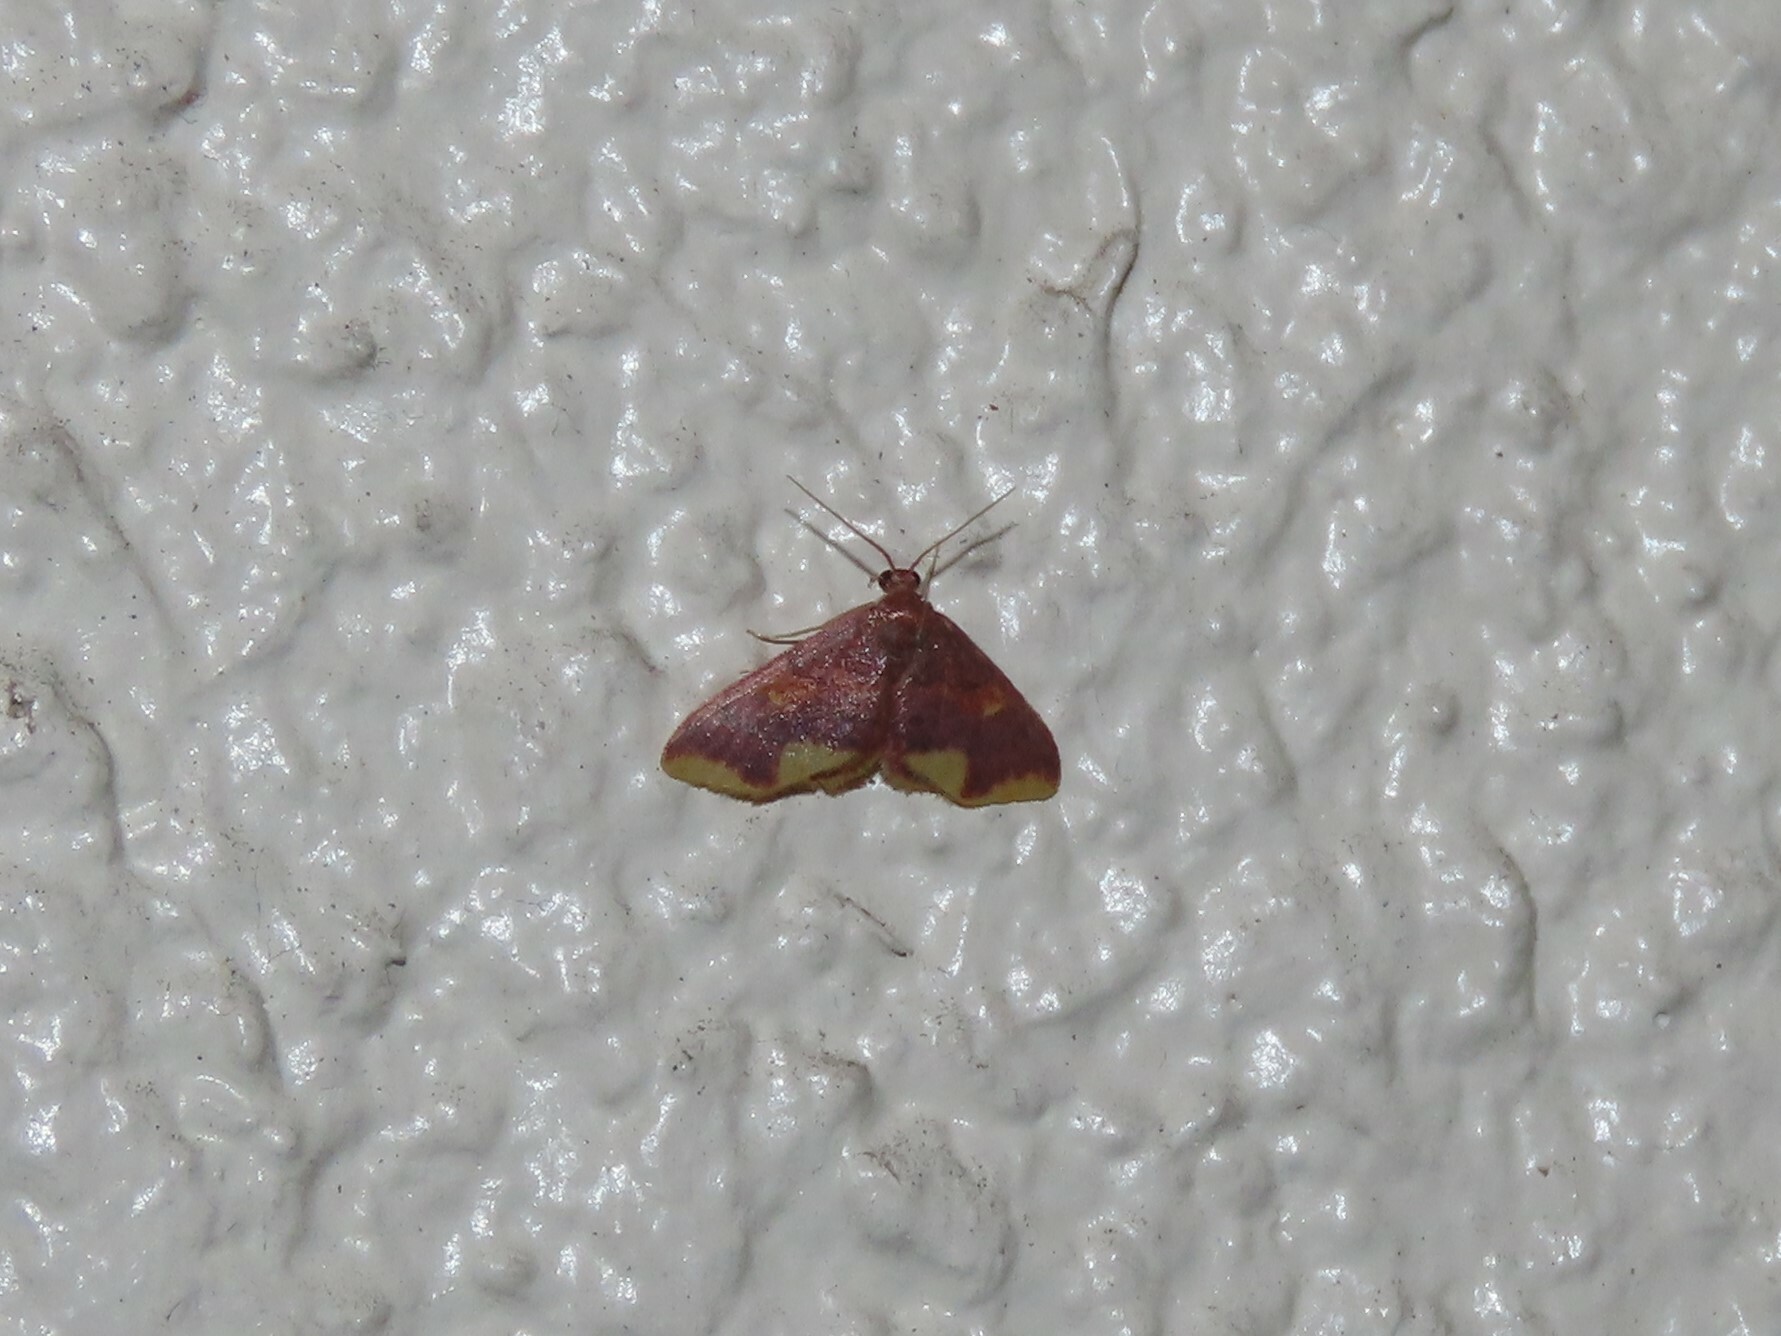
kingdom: Animalia
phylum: Arthropoda
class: Insecta
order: Lepidoptera
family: Geometridae
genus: Lophosis
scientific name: Lophosis labeculata
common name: Stained lophosis moth
